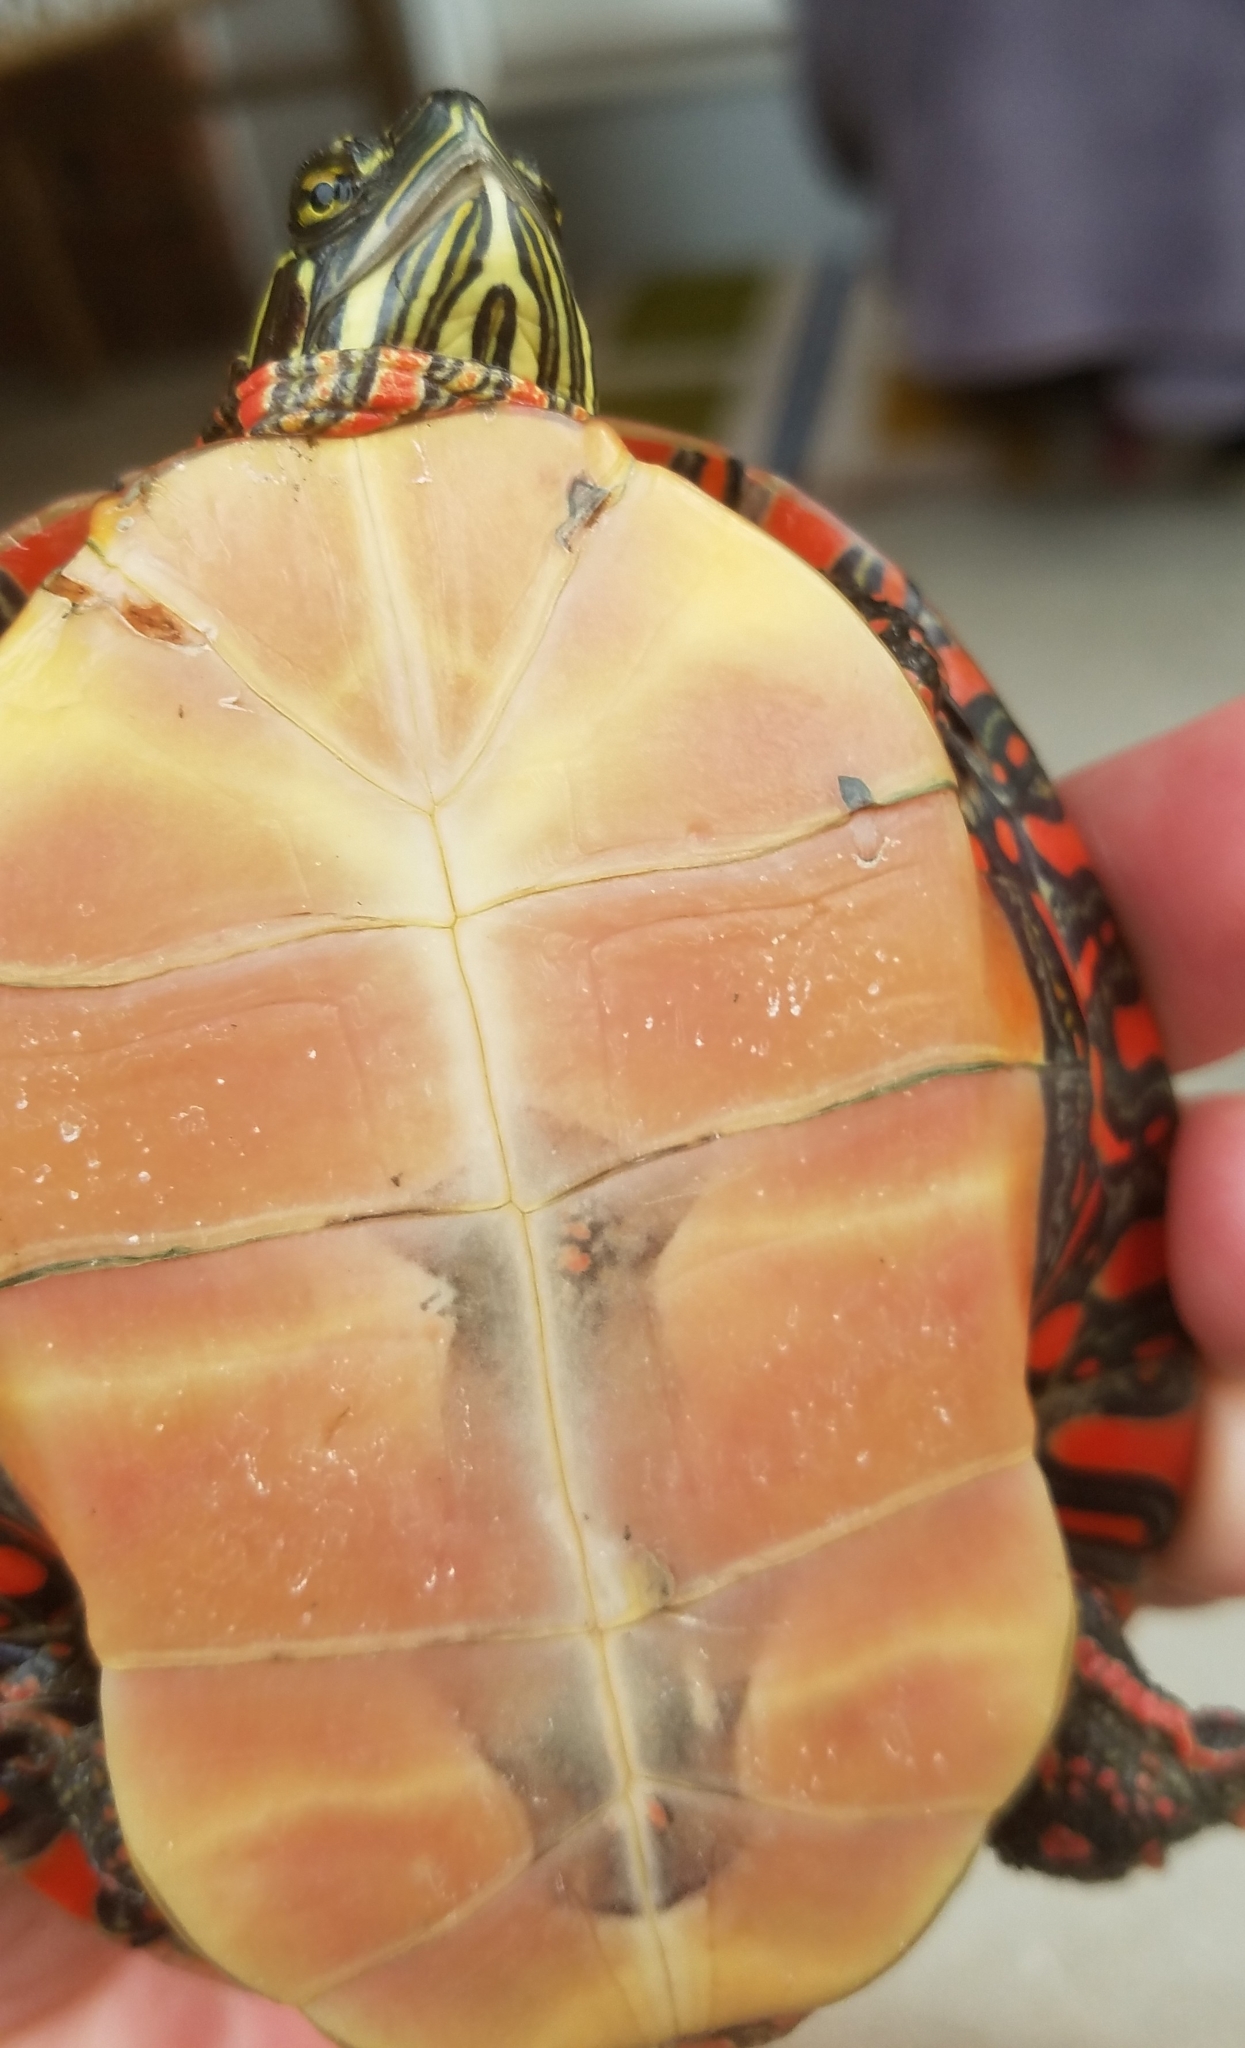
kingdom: Animalia
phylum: Chordata
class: Testudines
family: Emydidae
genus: Chrysemys
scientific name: Chrysemys picta
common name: Painted turtle
